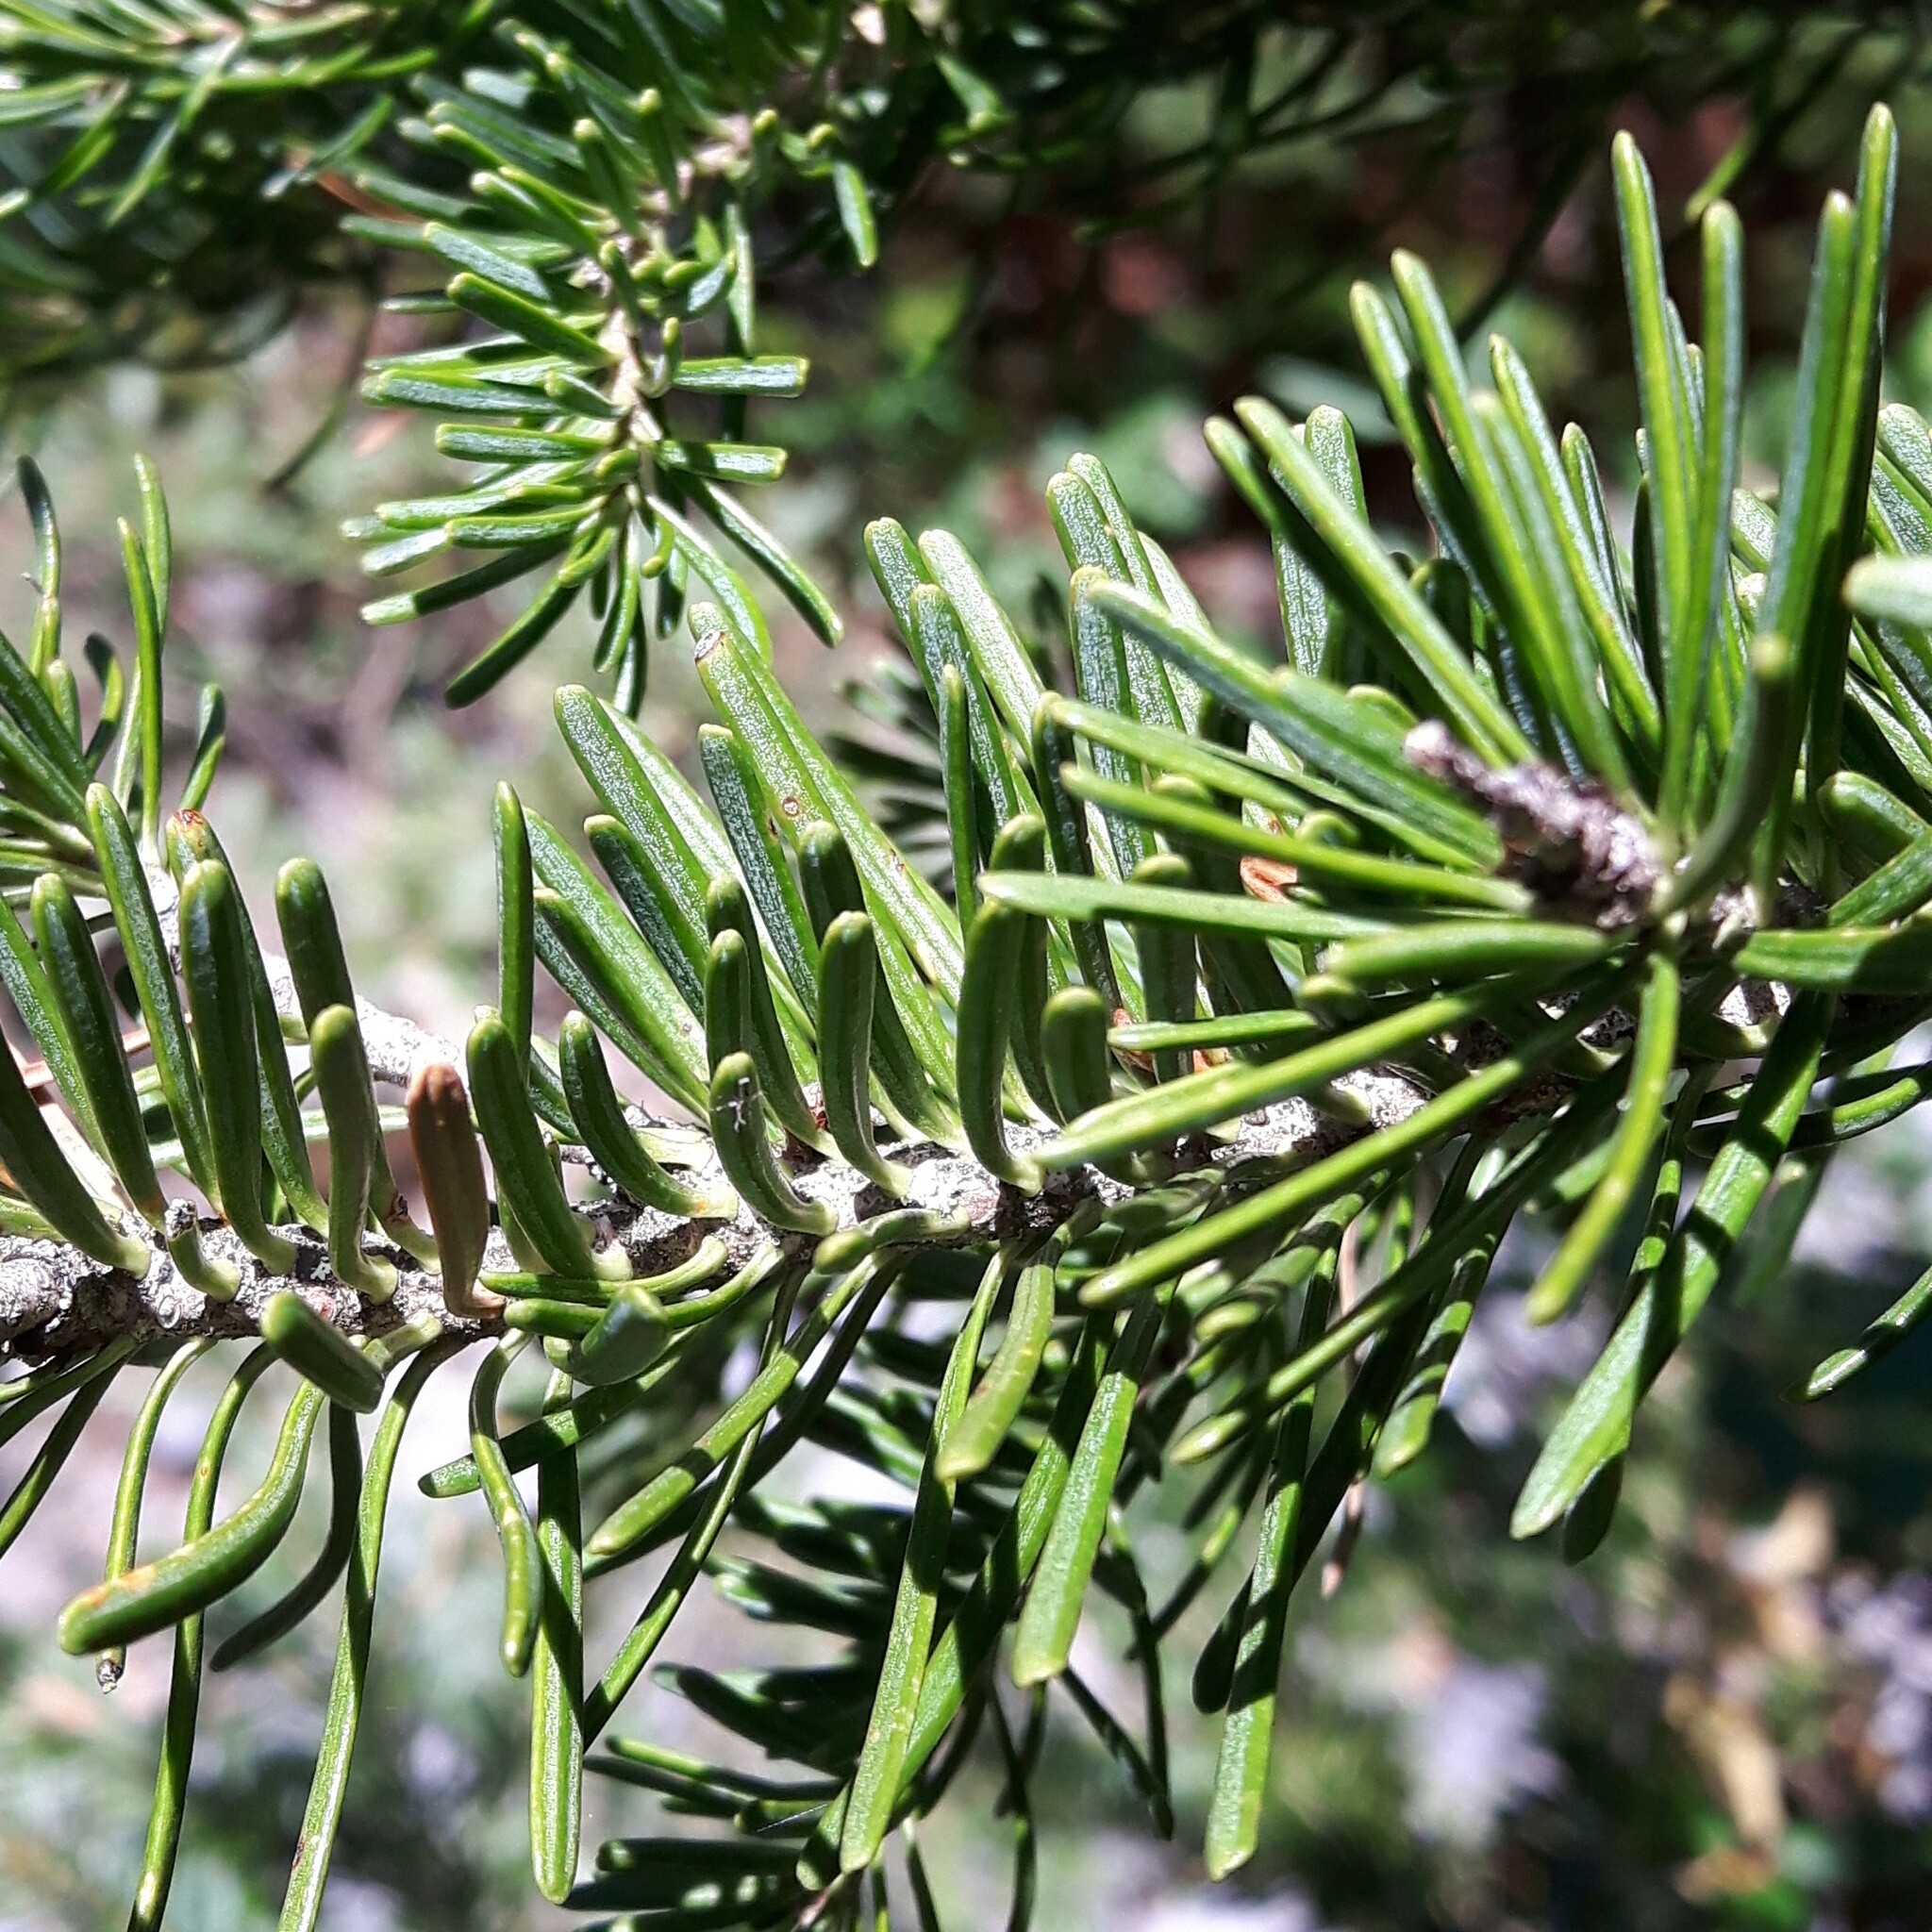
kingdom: Plantae
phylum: Tracheophyta
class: Pinopsida
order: Pinales
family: Pinaceae
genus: Abies
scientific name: Abies lasiocarpa
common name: Subalpine fir
